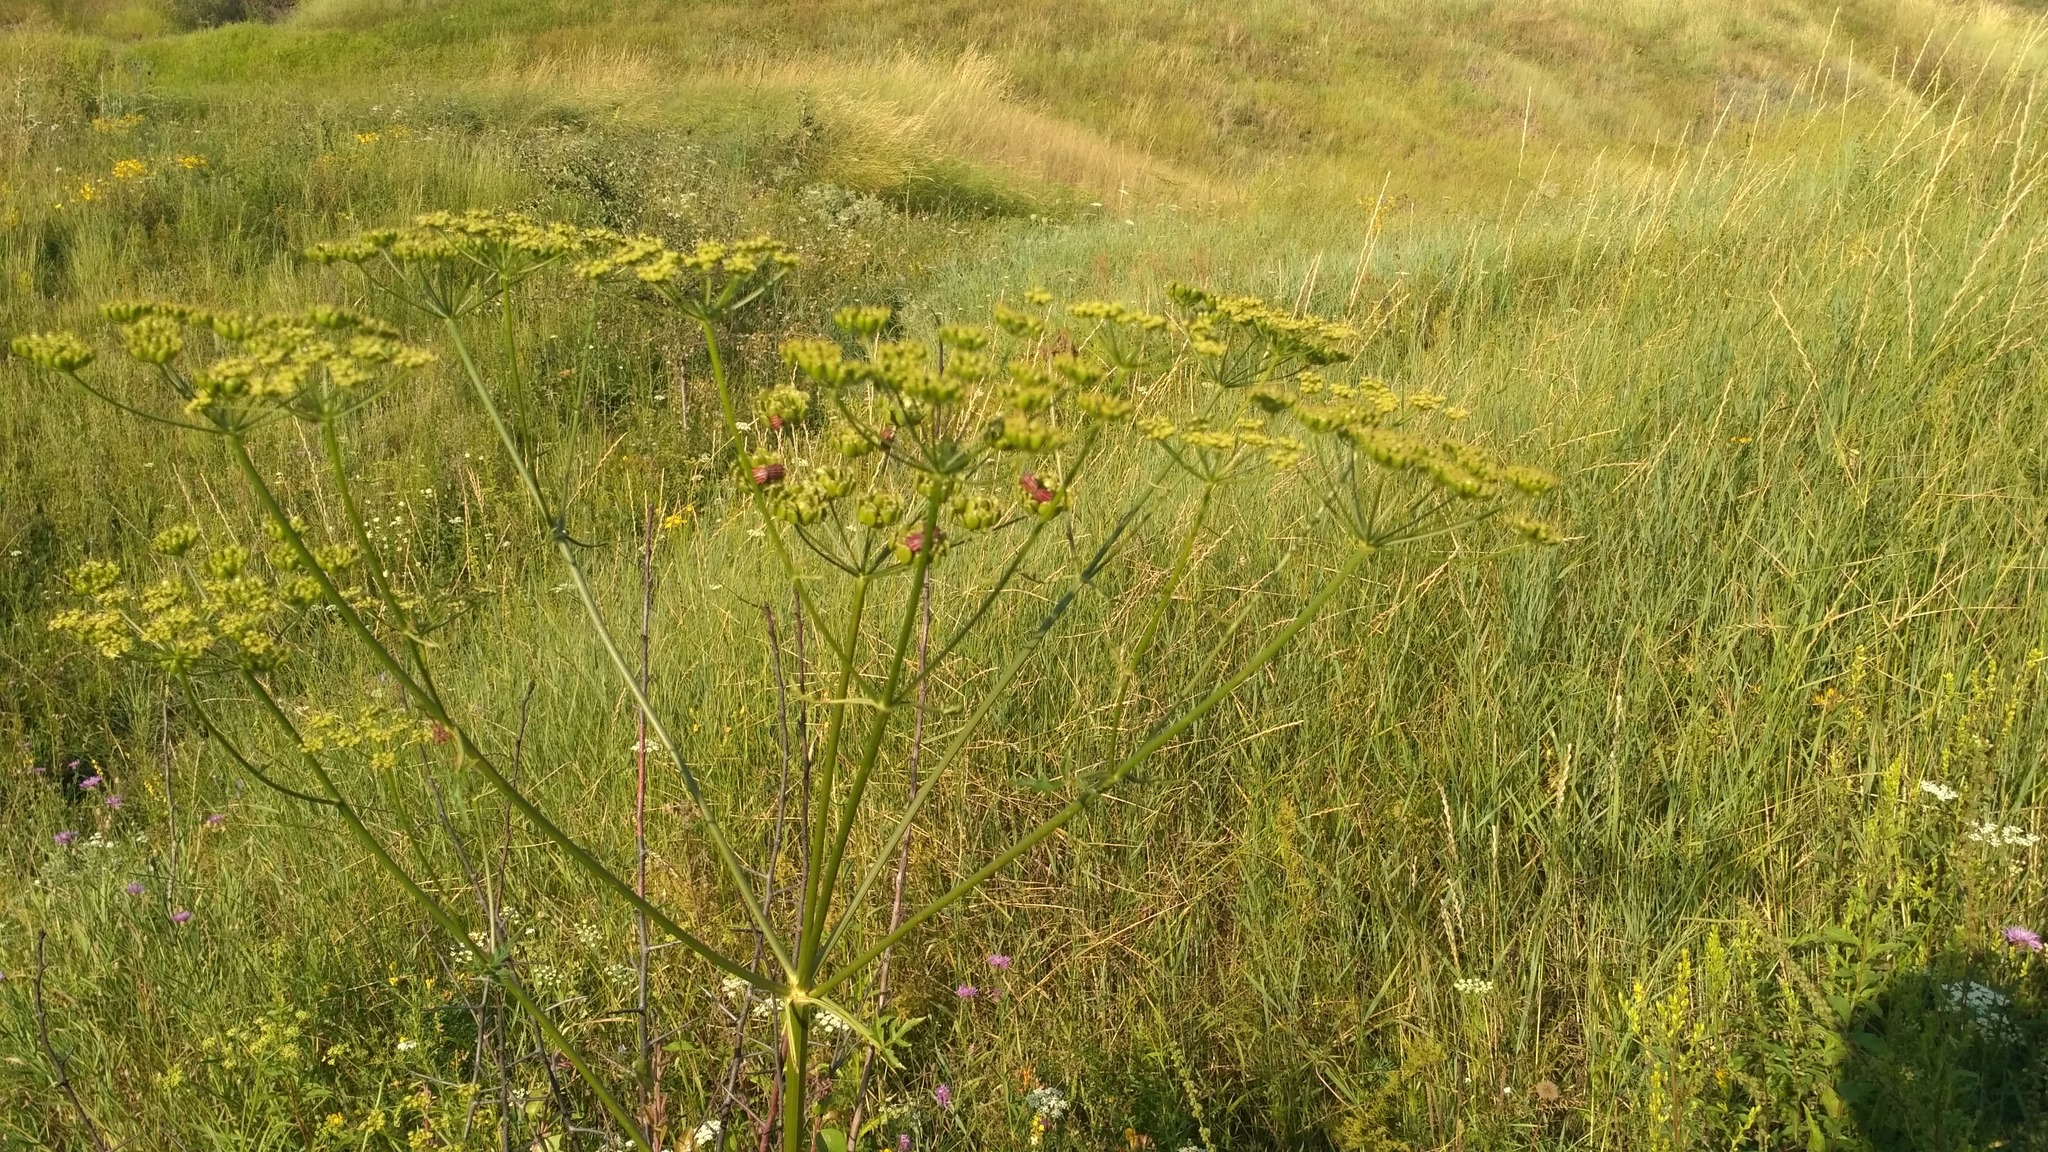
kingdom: Plantae
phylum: Tracheophyta
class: Magnoliopsida
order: Apiales
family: Apiaceae
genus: Heracleum
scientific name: Heracleum sphondylium
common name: Hogweed
